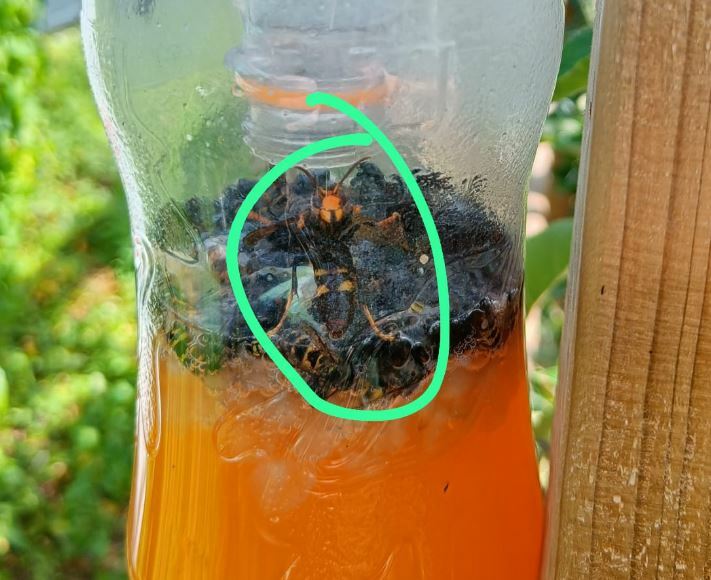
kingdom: Animalia
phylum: Arthropoda
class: Insecta
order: Hymenoptera
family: Vespidae
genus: Vespa
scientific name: Vespa velutina
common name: Asian hornet
